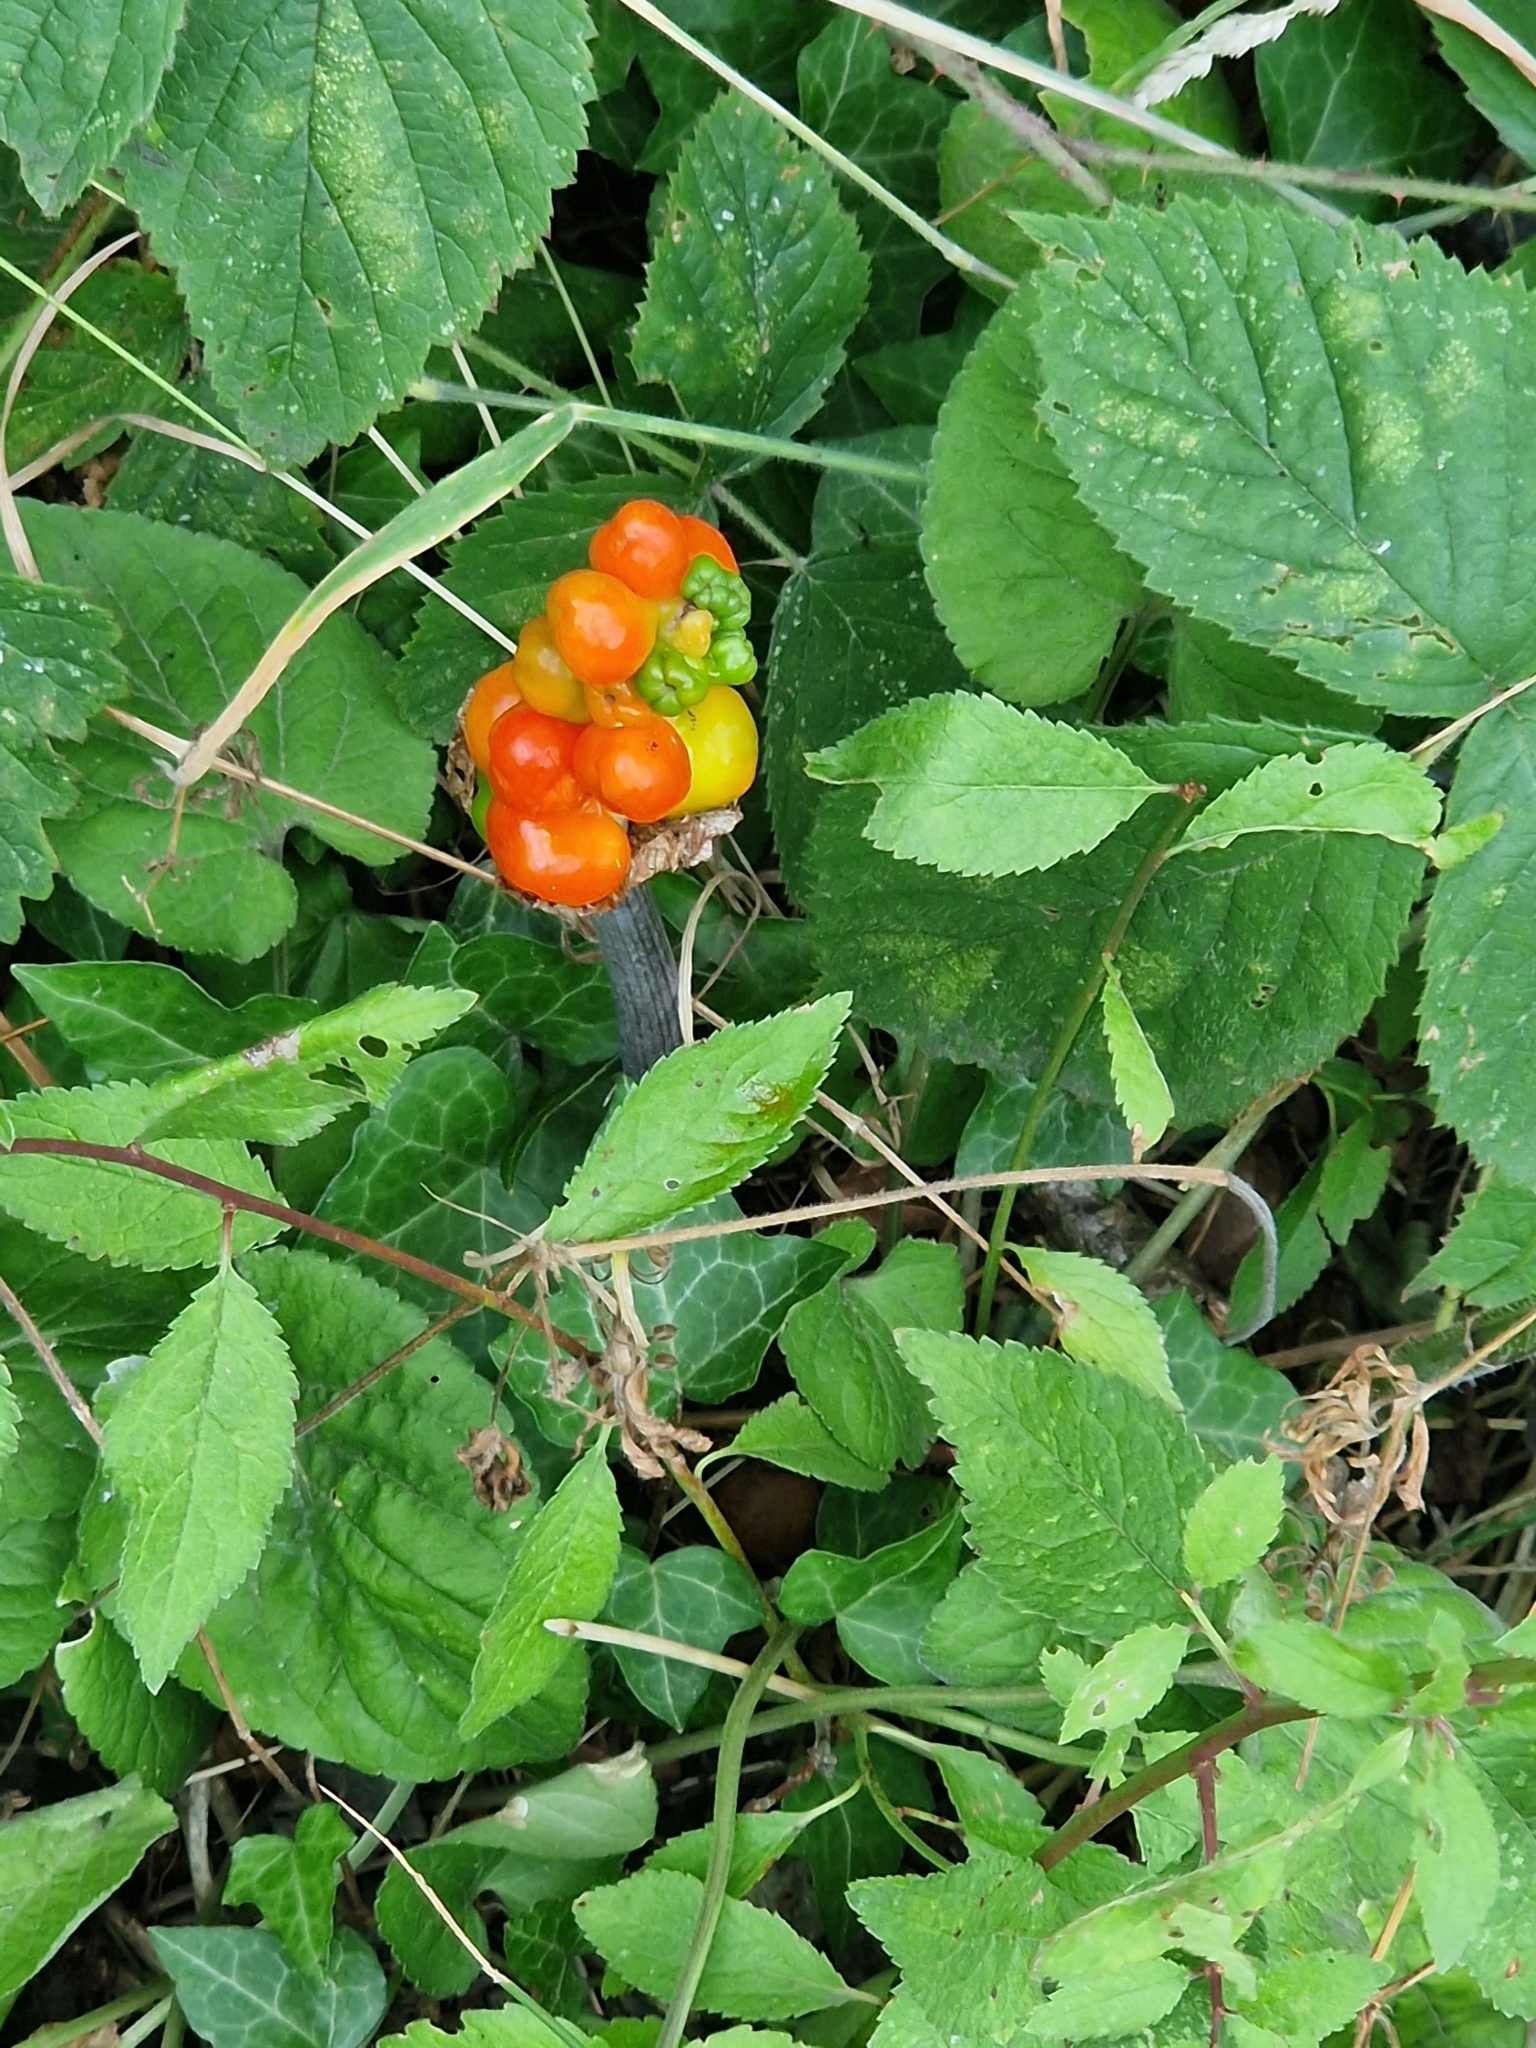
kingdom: Plantae
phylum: Tracheophyta
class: Liliopsida
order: Alismatales
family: Araceae
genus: Arum
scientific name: Arum maculatum
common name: Lords-and-ladies
